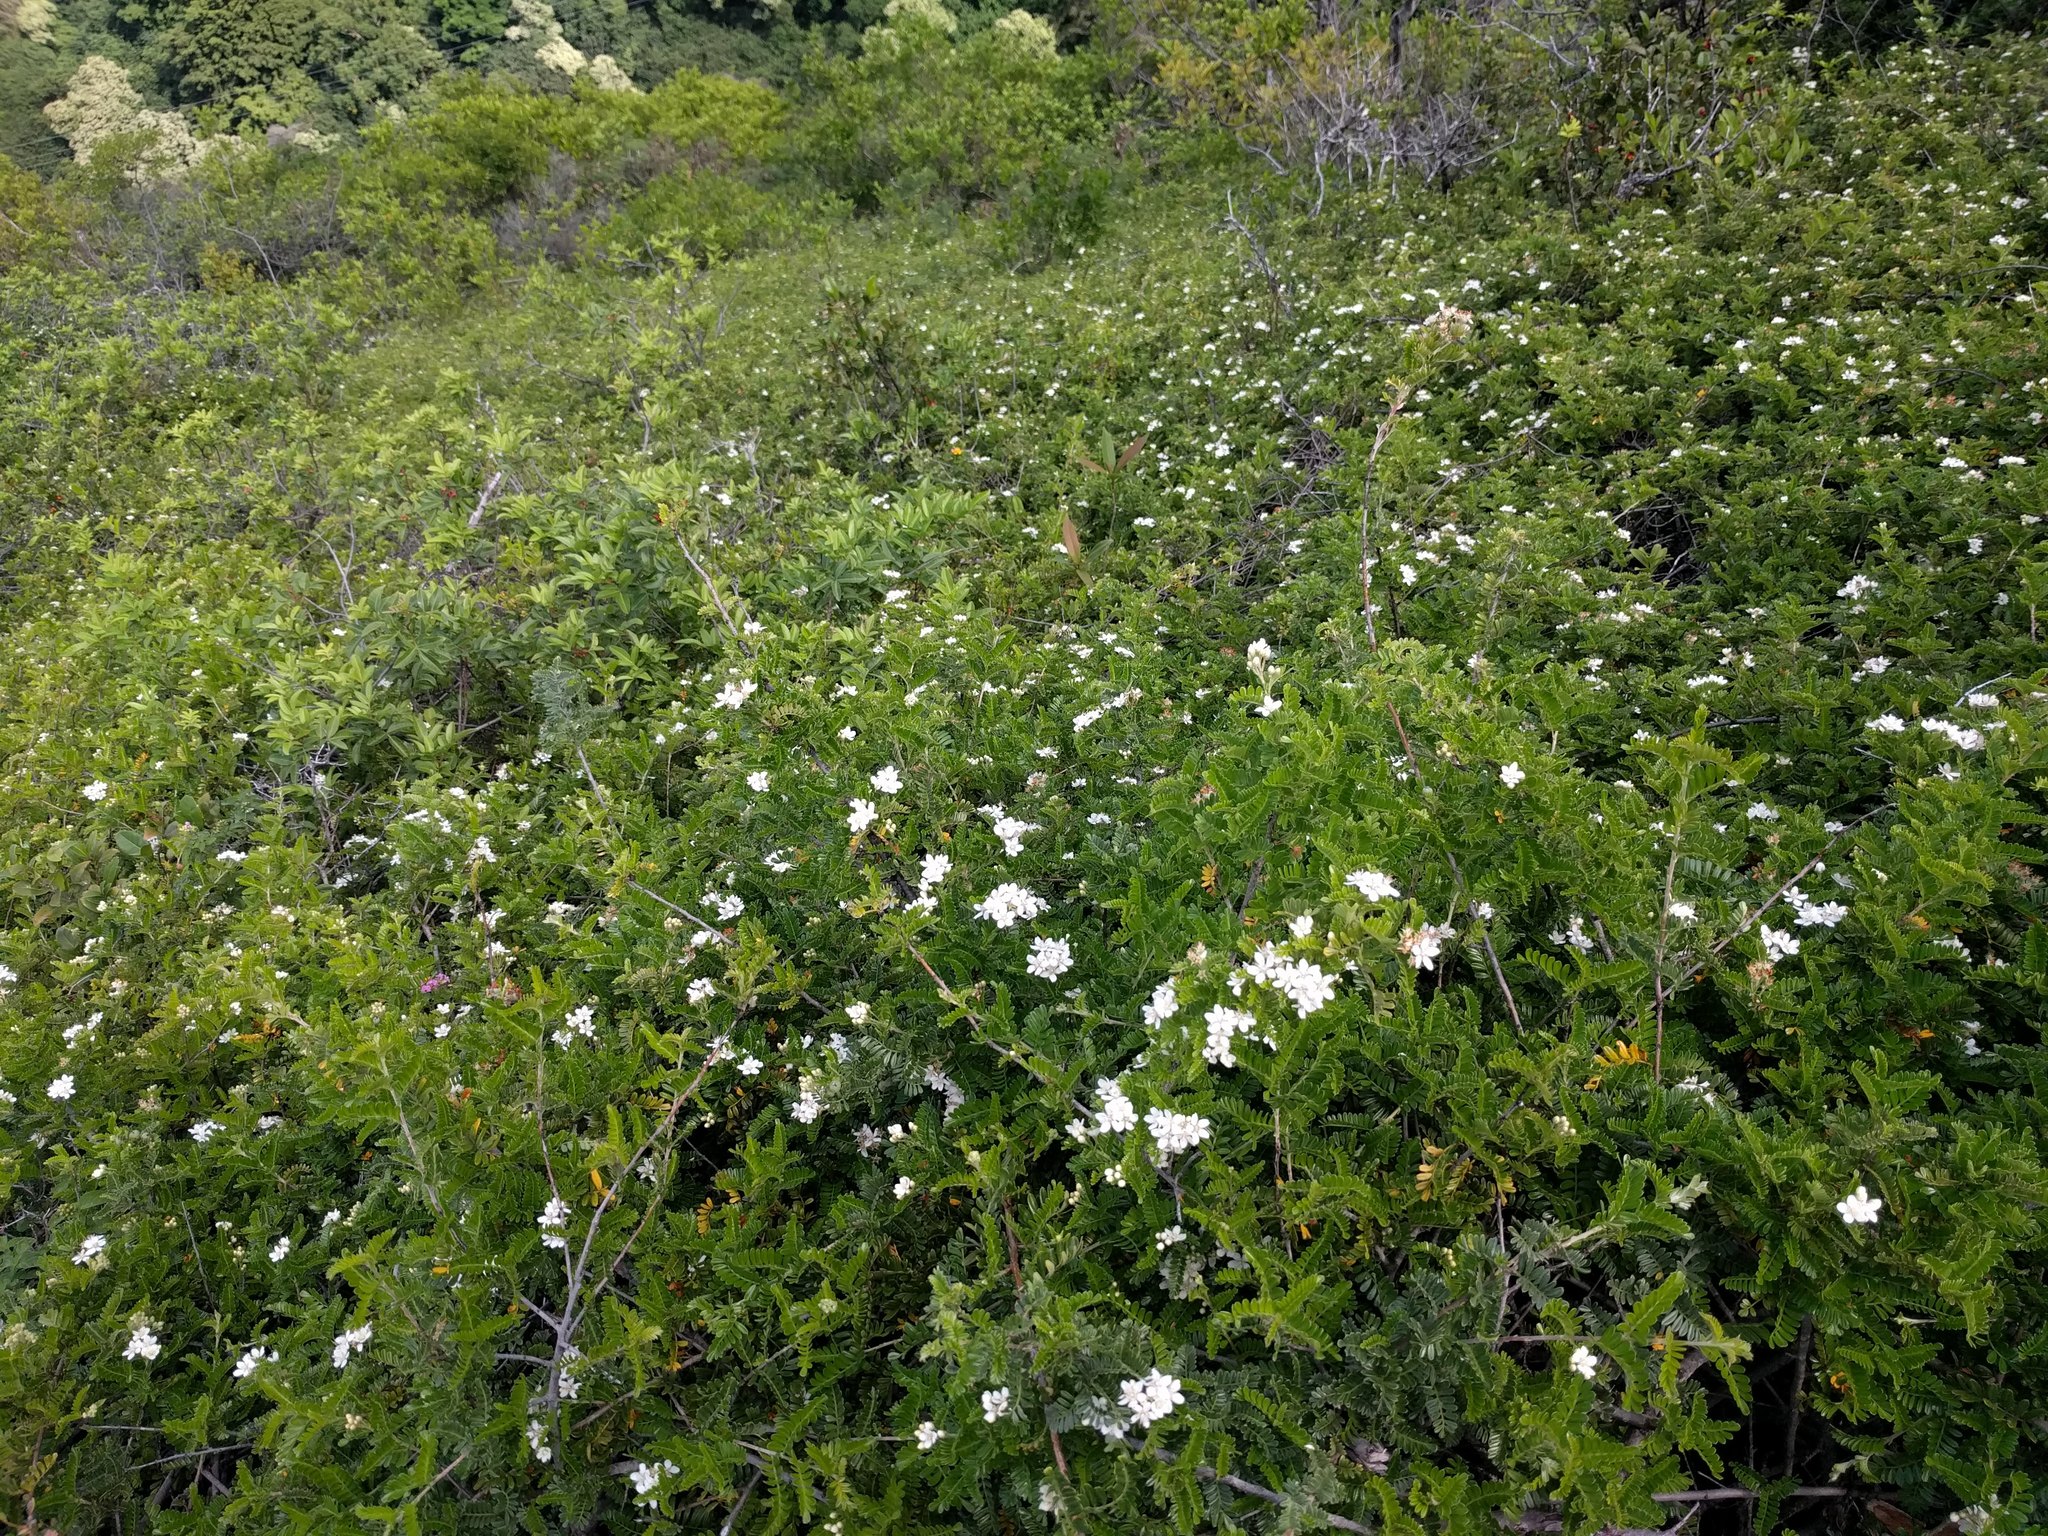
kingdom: Plantae
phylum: Tracheophyta
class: Magnoliopsida
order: Rosales
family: Rosaceae
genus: Osteomeles
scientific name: Osteomeles anthyllidifolia
